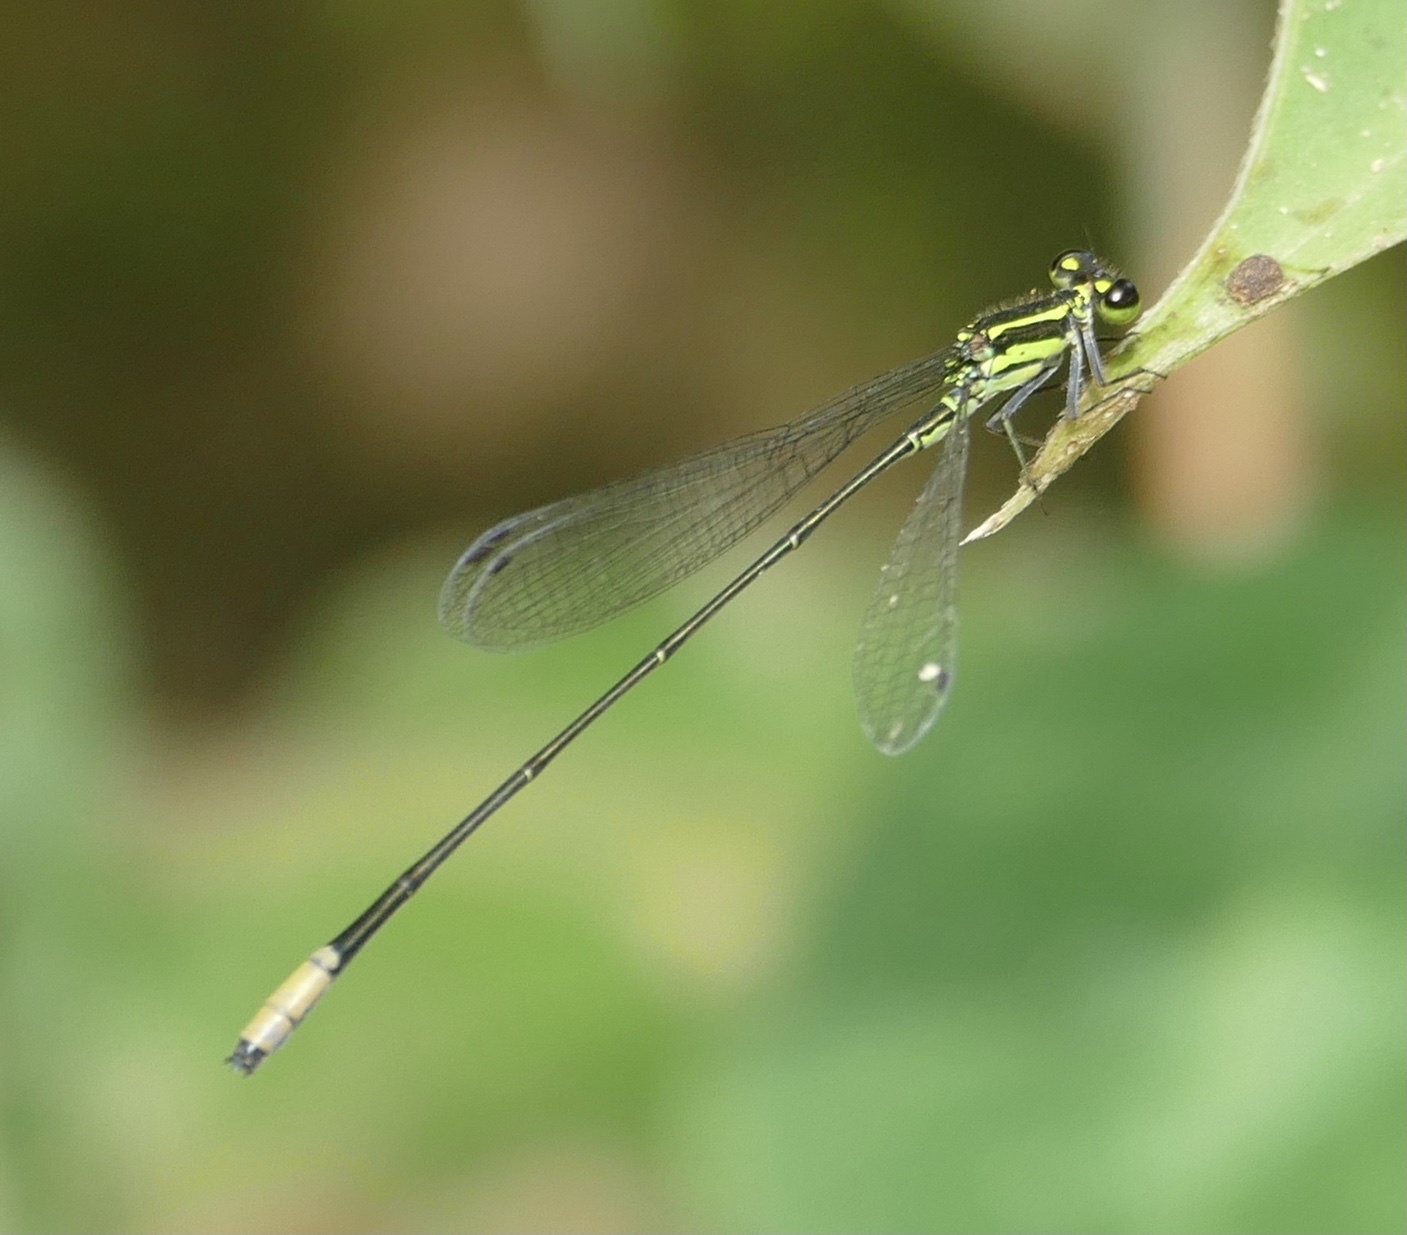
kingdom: Animalia
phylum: Arthropoda
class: Insecta
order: Odonata
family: Coenagrionidae
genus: Pseudagrion
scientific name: Pseudagrion melanicterum
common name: Farmbush sprite
